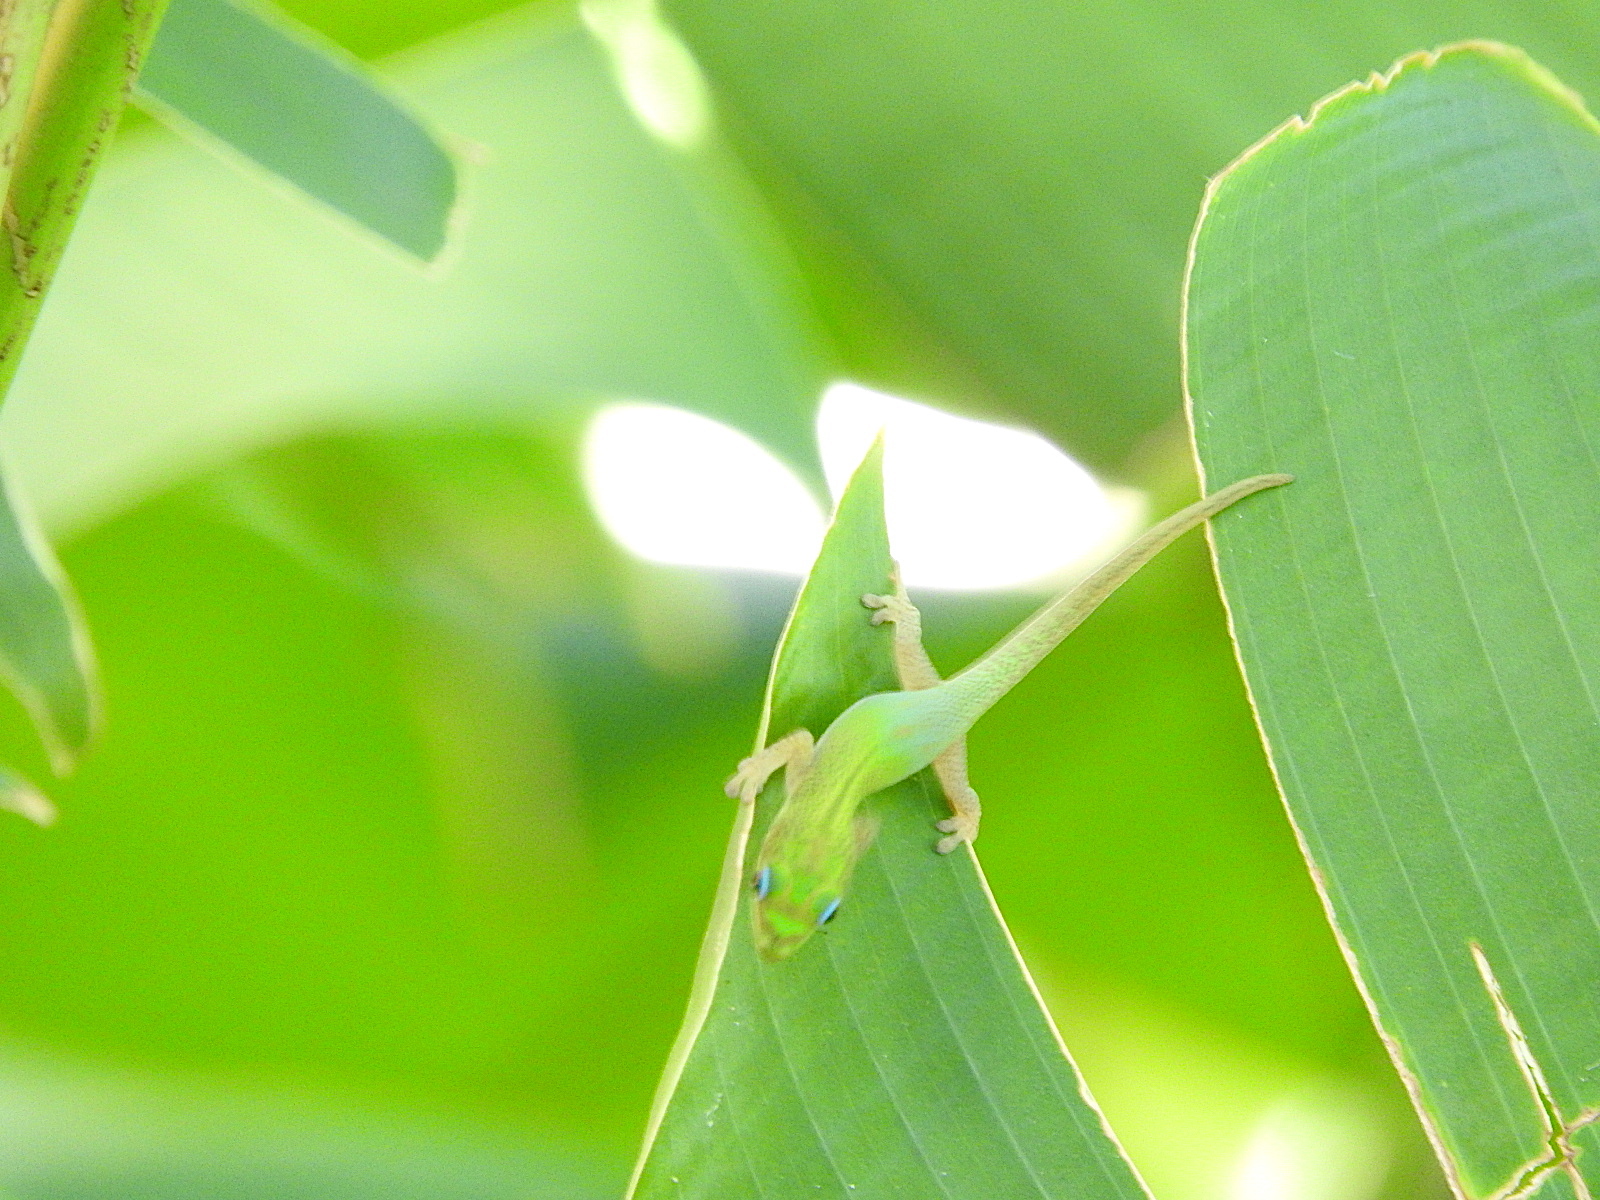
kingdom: Animalia
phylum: Chordata
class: Squamata
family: Gekkonidae
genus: Phelsuma
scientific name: Phelsuma laticauda
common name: Gold dust day gecko
